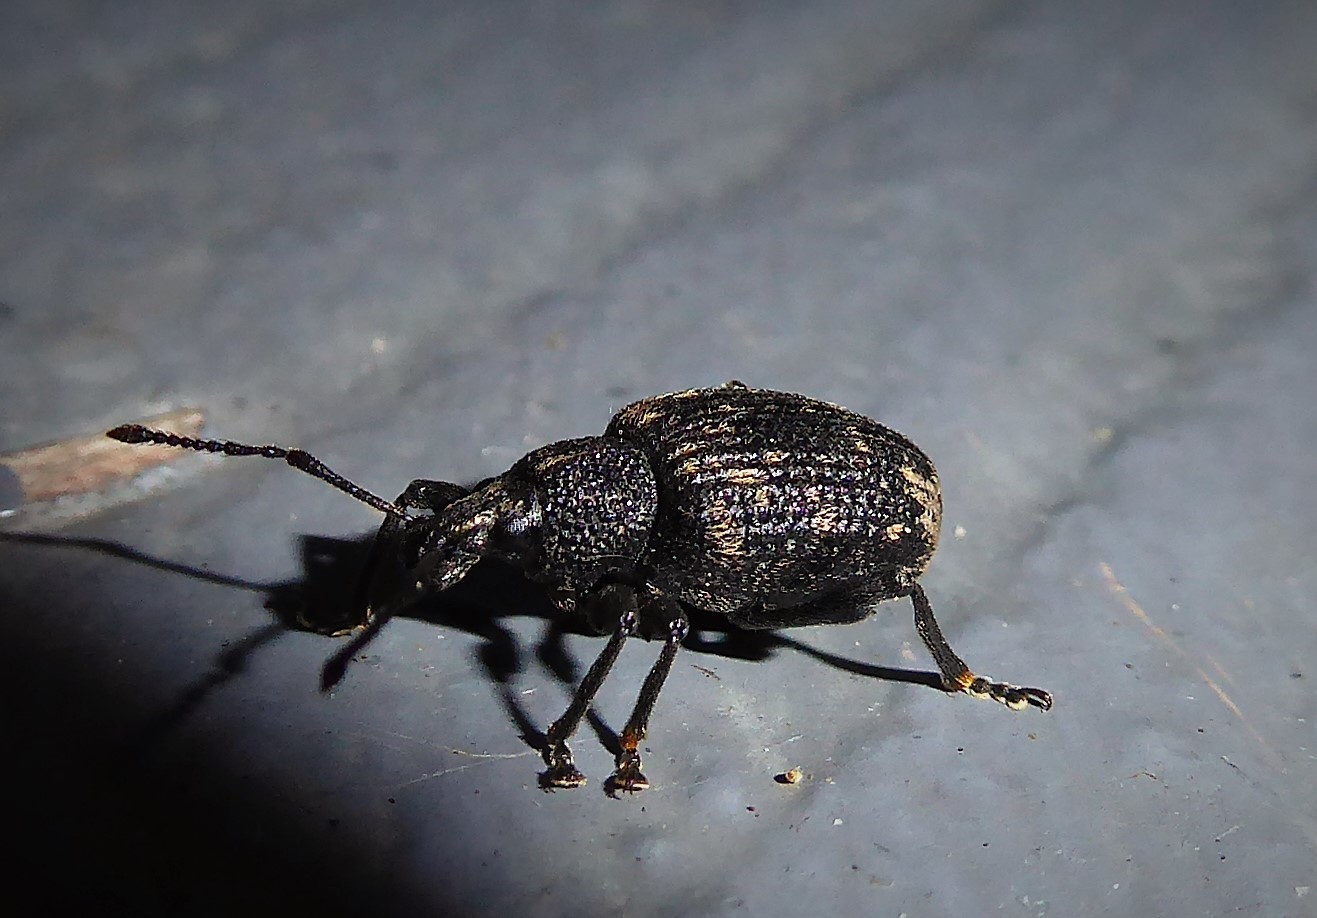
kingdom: Animalia
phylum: Arthropoda
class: Insecta
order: Coleoptera
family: Curculionidae
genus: Otiorhynchus
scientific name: Otiorhynchus sulcatus
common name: Black vine weevil
